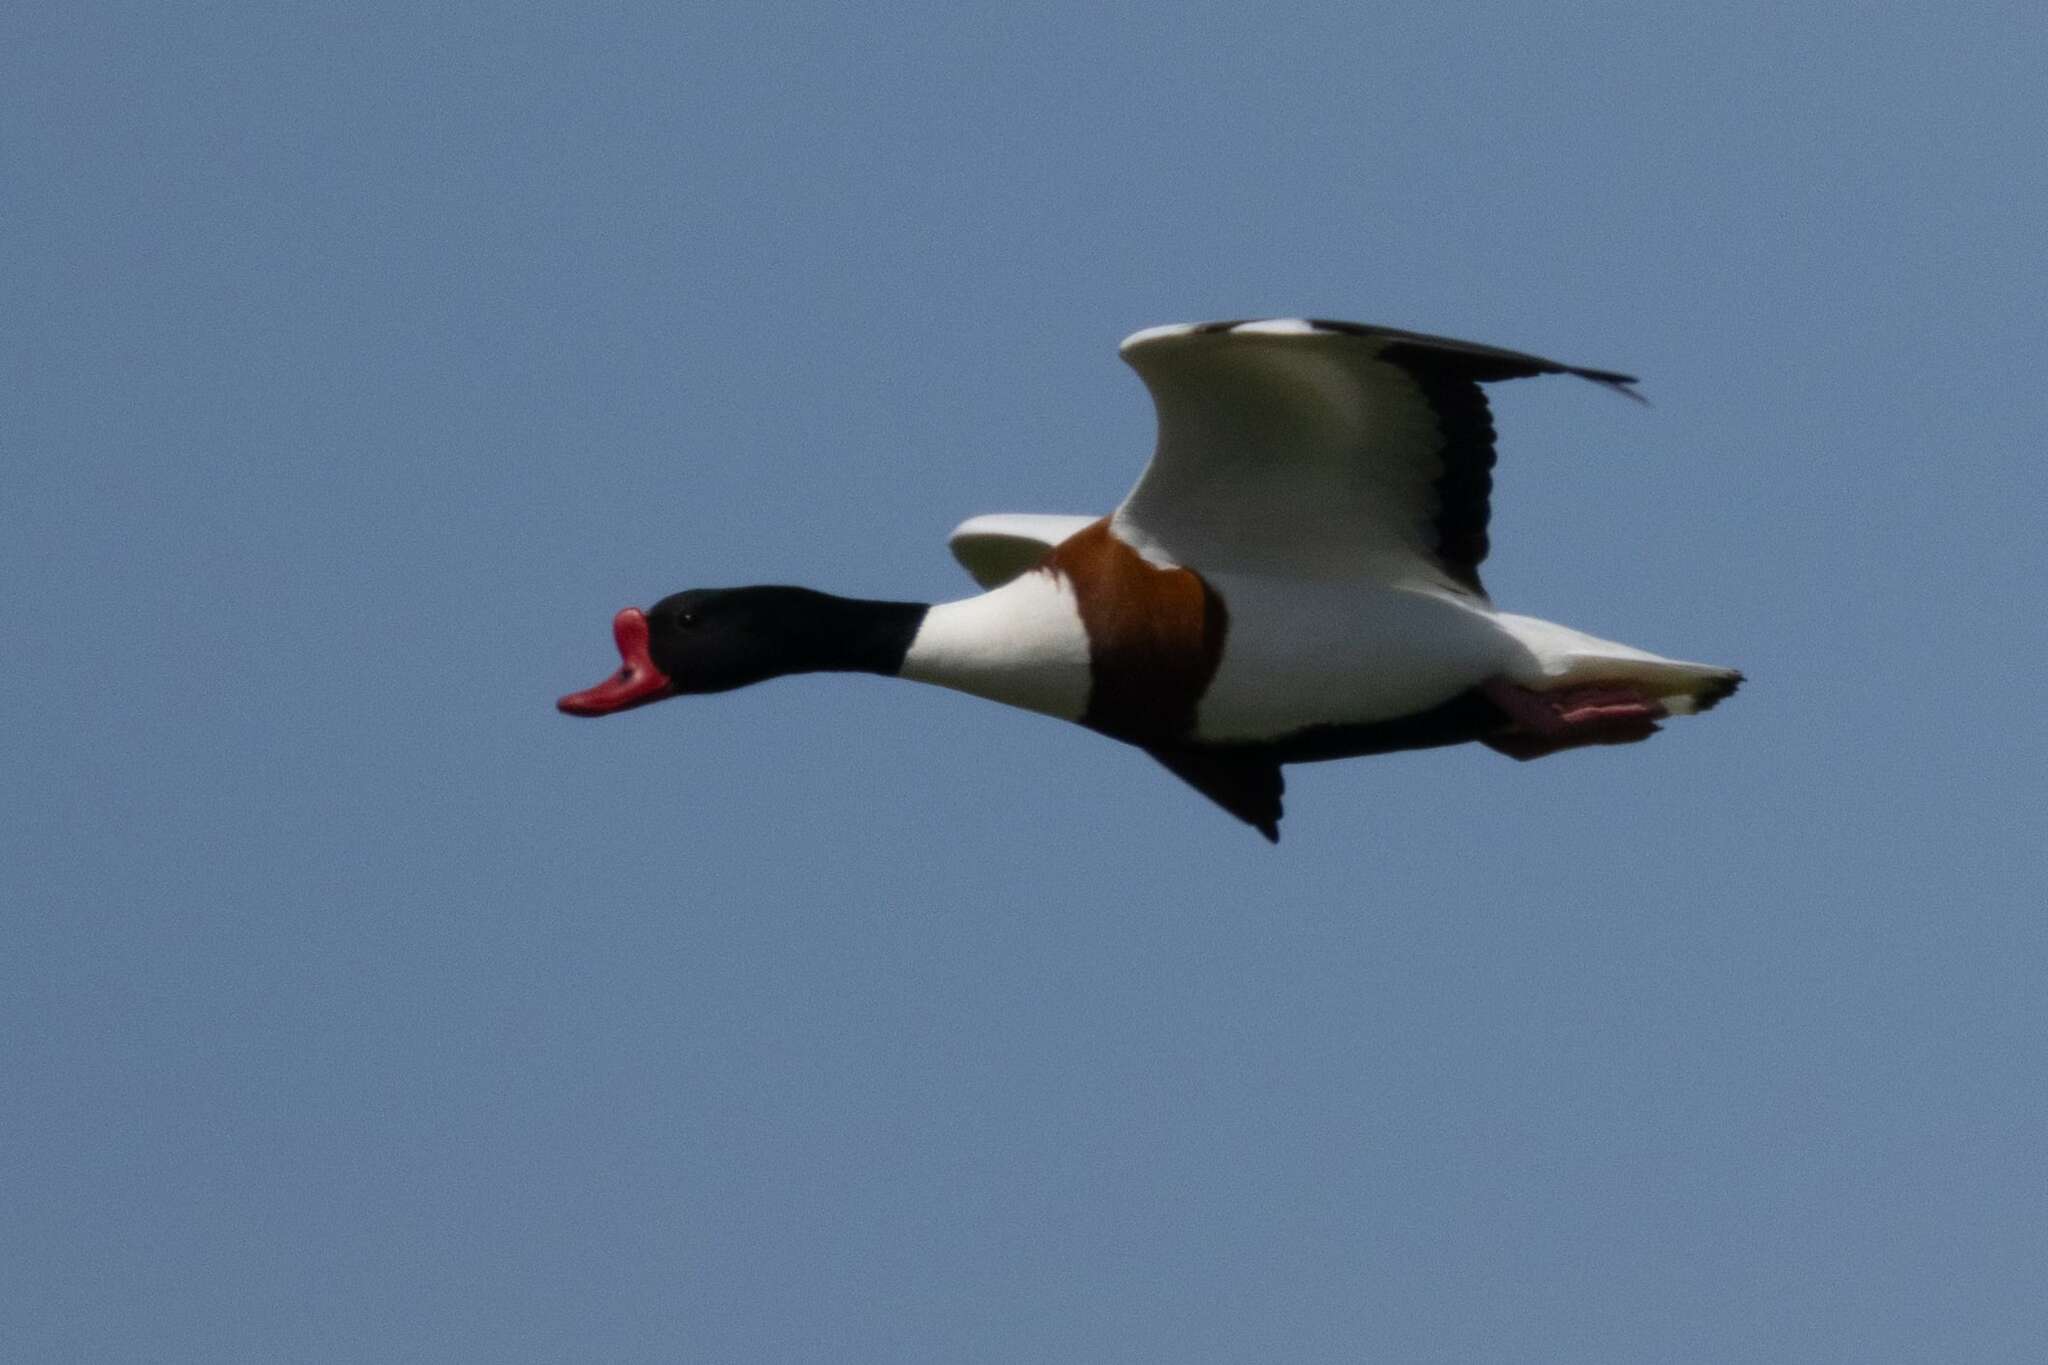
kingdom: Animalia
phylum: Chordata
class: Aves
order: Anseriformes
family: Anatidae
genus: Tadorna
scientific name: Tadorna tadorna
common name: Common shelduck
